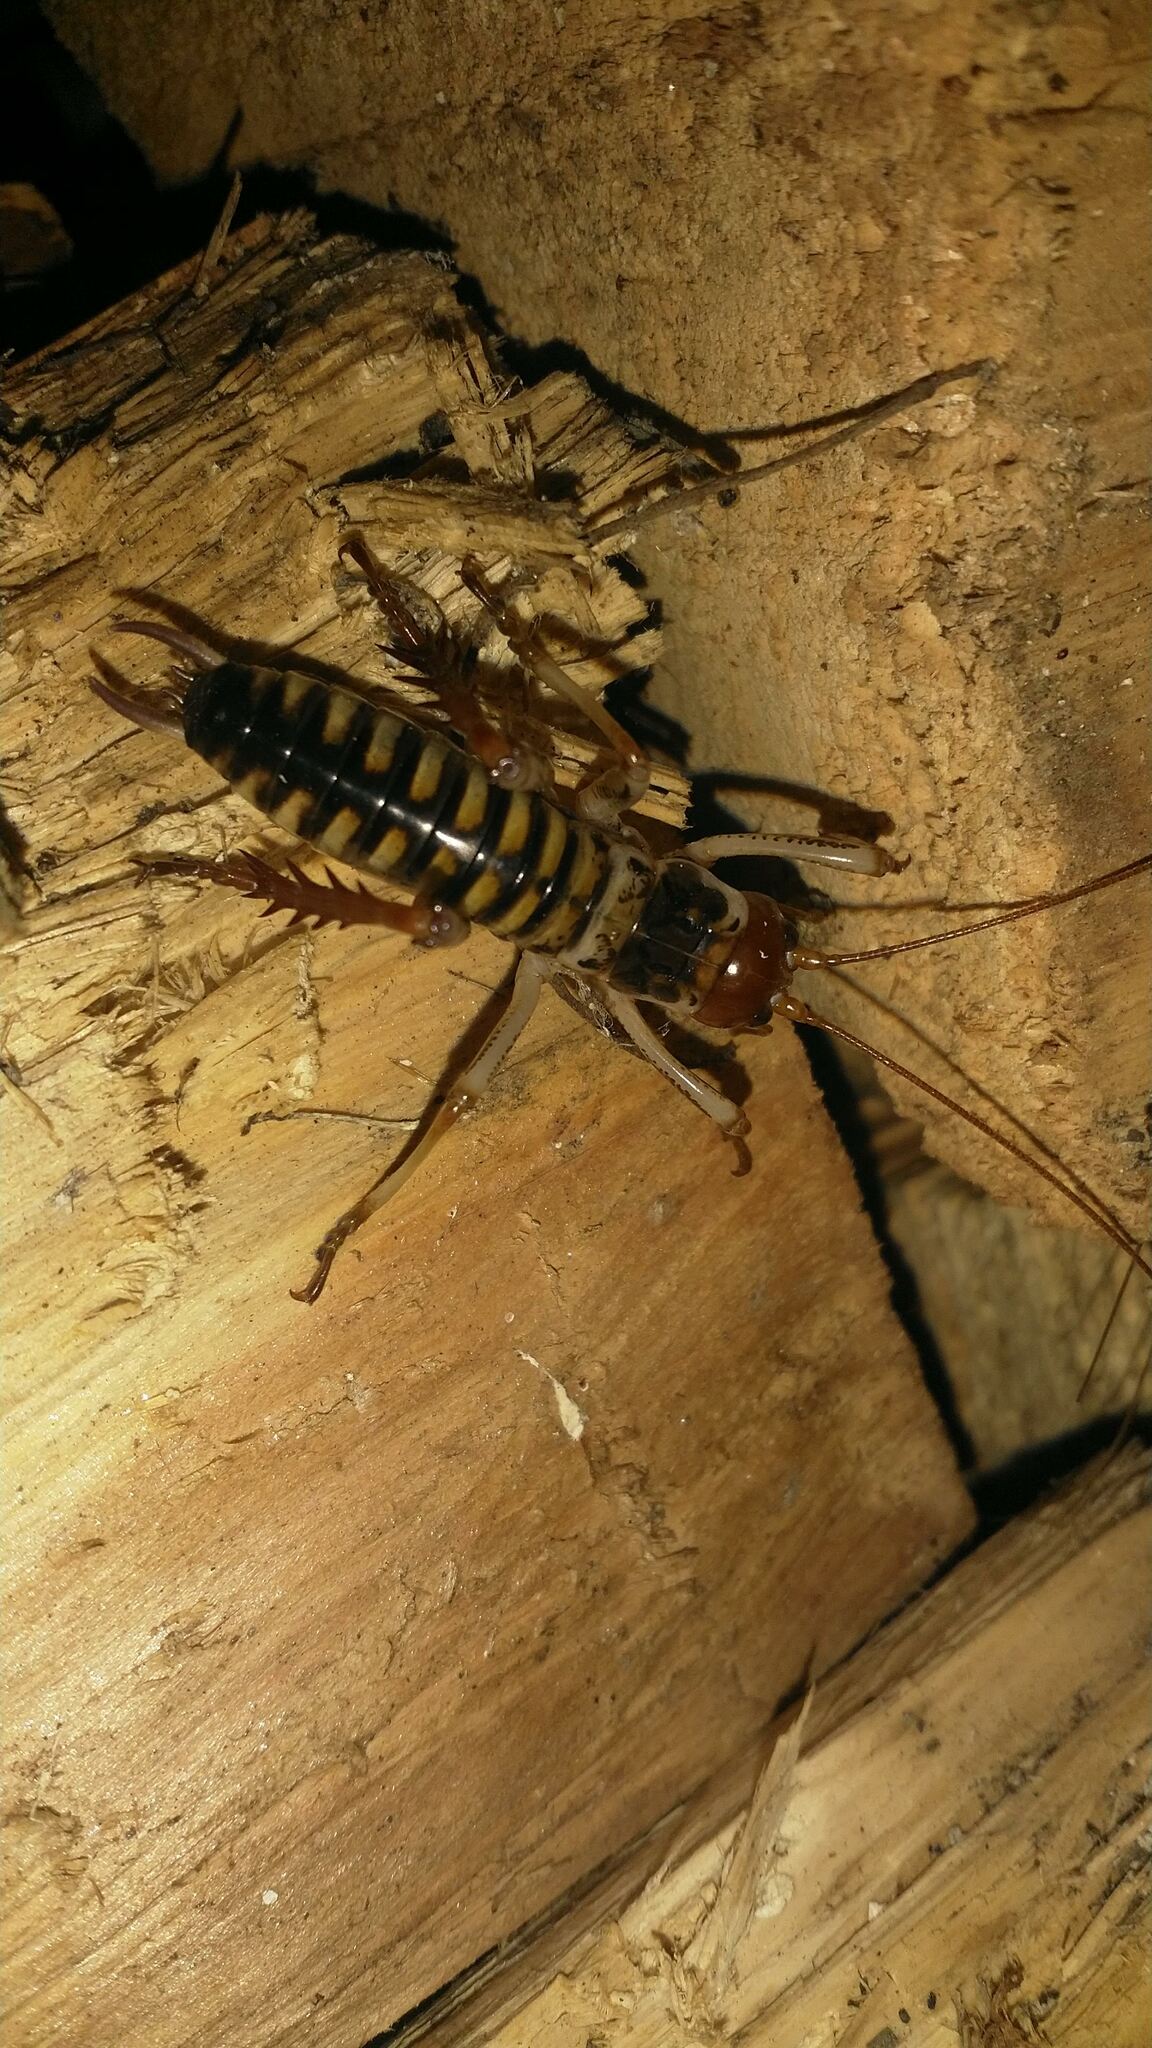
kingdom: Animalia
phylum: Arthropoda
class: Insecta
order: Orthoptera
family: Anostostomatidae
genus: Hemideina
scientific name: Hemideina crassidens
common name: Wellington tree weta
